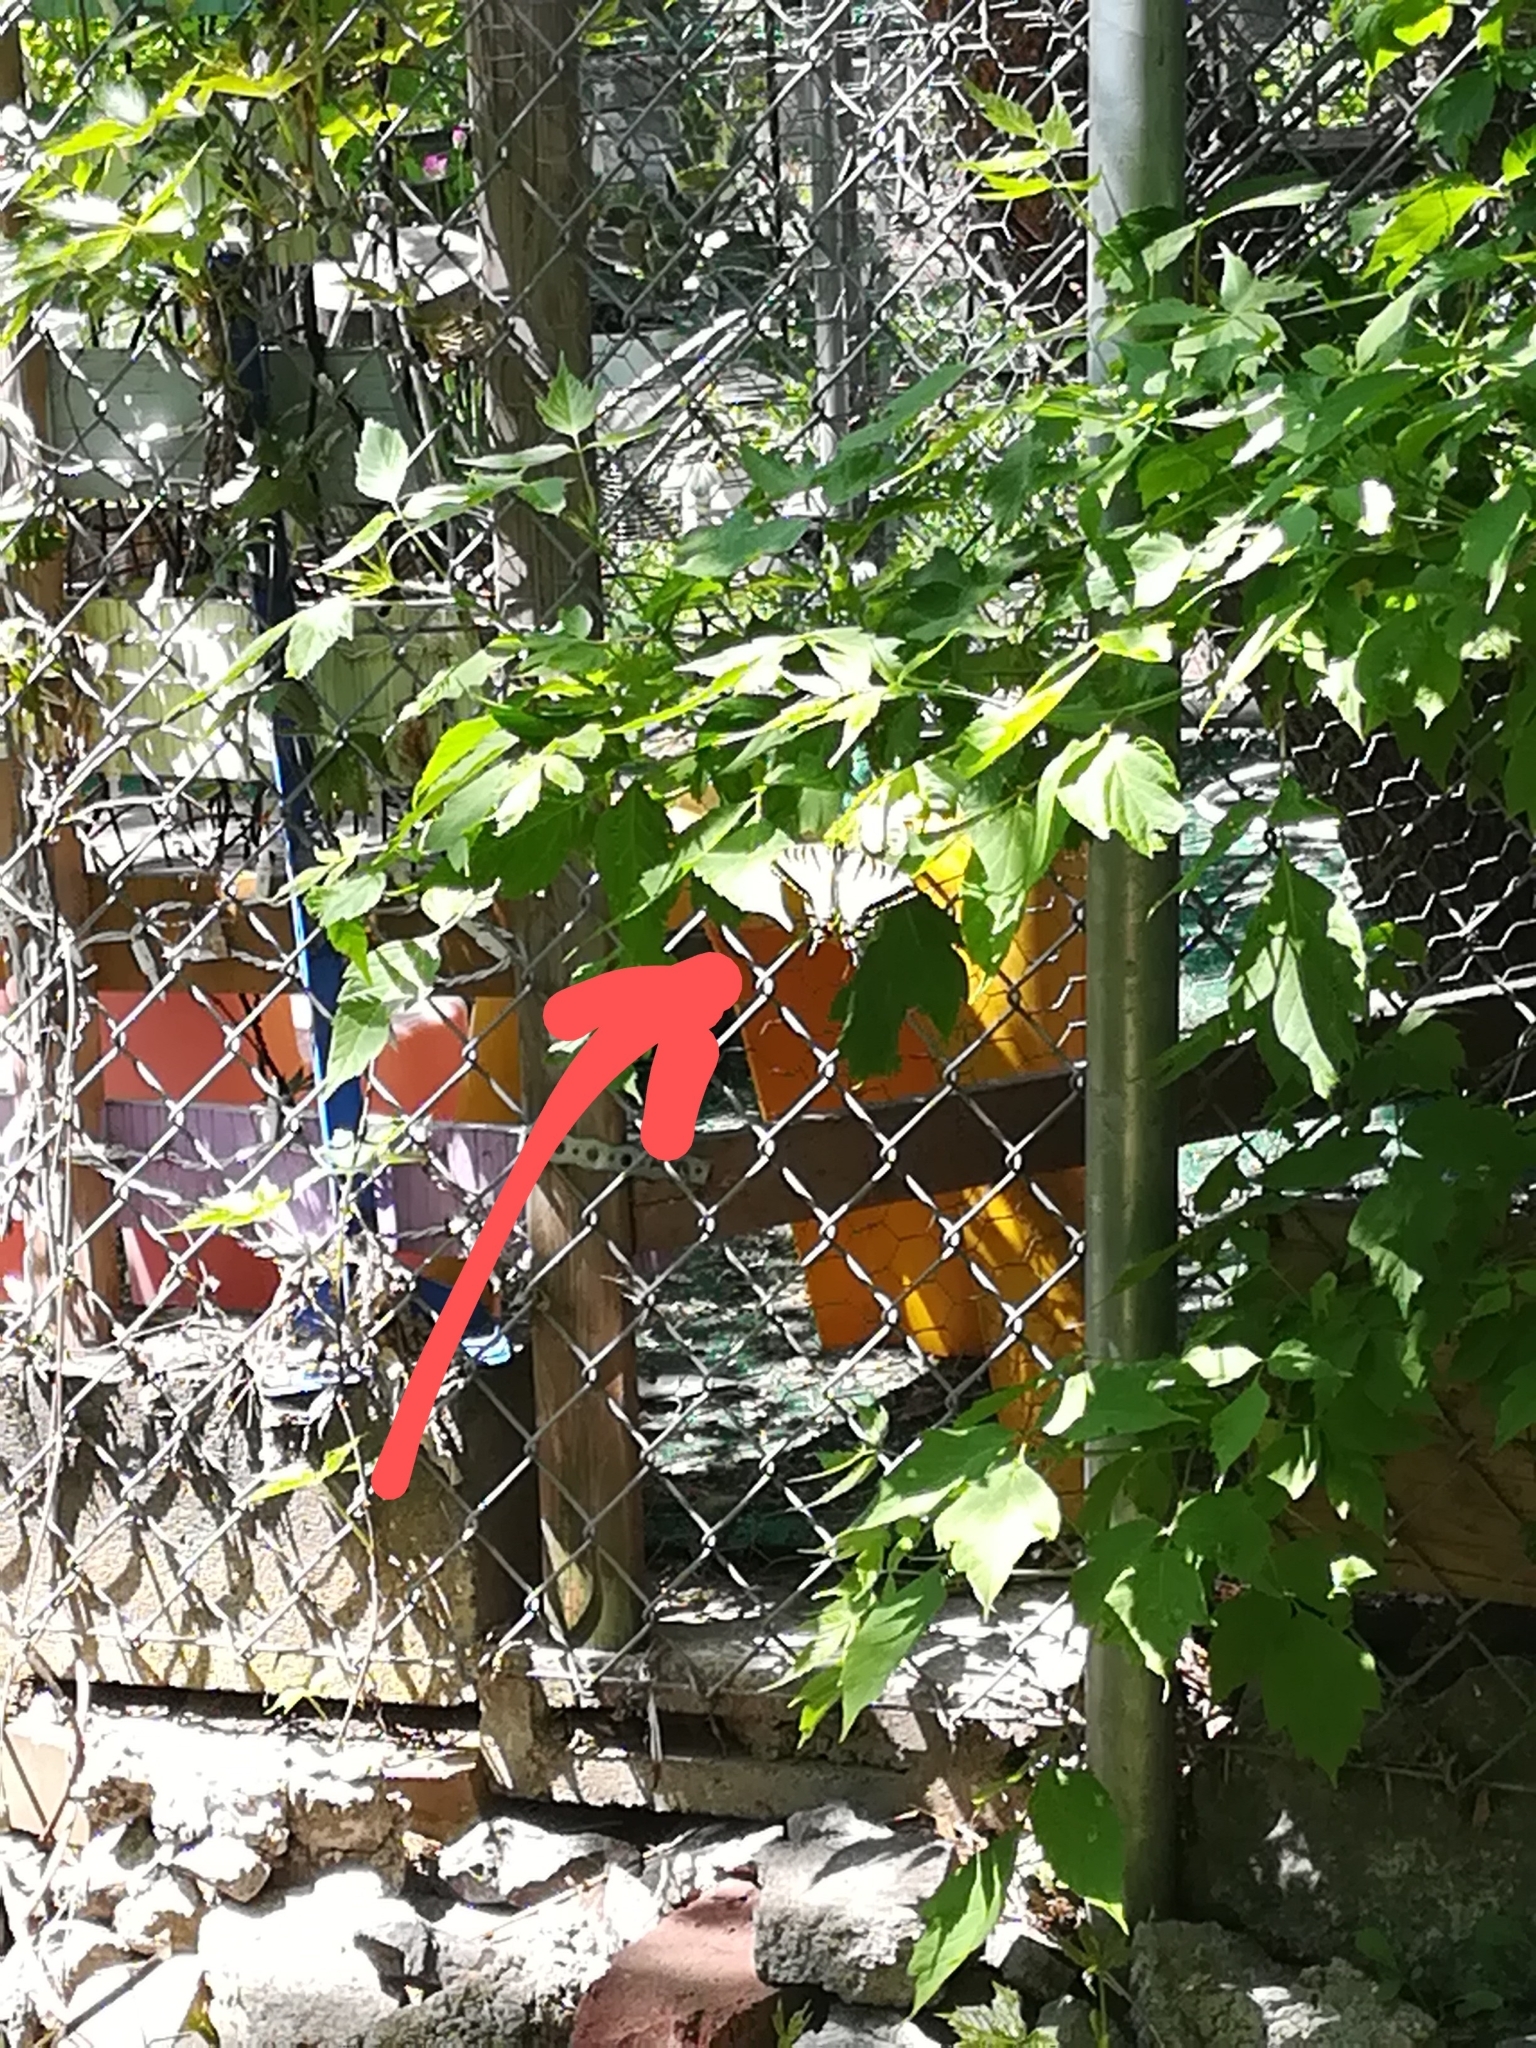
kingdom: Animalia
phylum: Arthropoda
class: Insecta
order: Lepidoptera
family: Papilionidae
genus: Papilio
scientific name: Papilio canadensis
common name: Canadian tiger swallowtail
